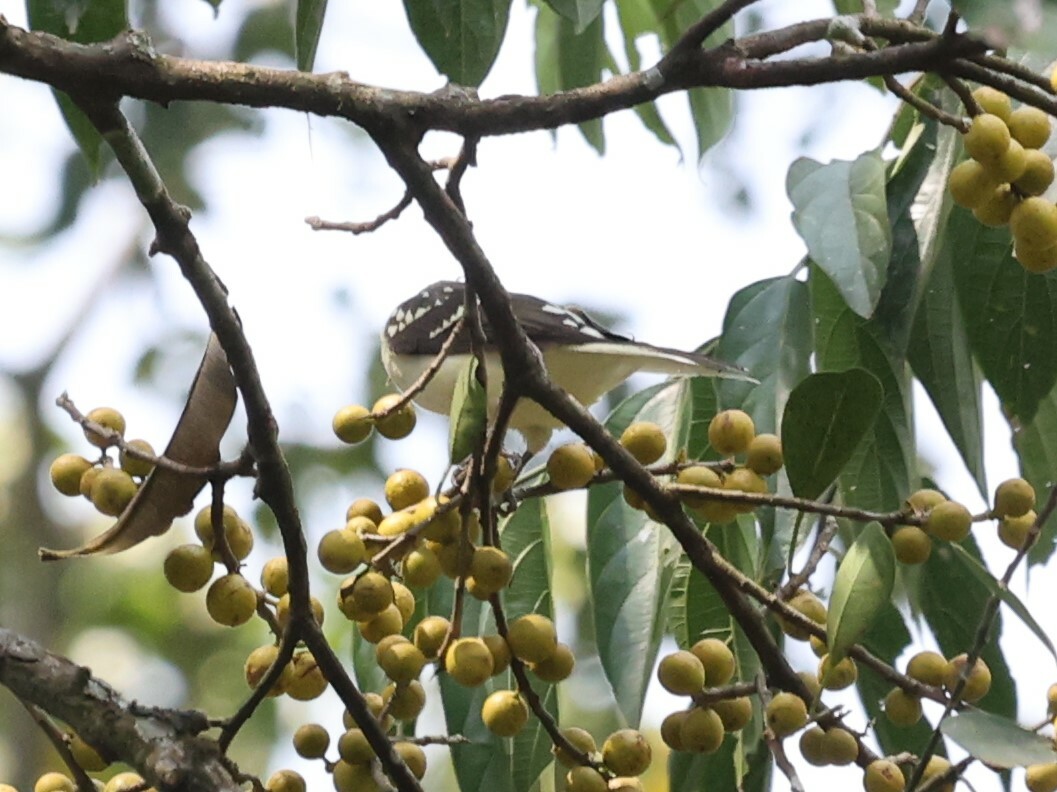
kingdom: Animalia
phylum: Chordata
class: Aves
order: Passeriformes
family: Pycnonotidae
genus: Ixonotus
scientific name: Ixonotus guttatus
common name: Spotted greenbul
